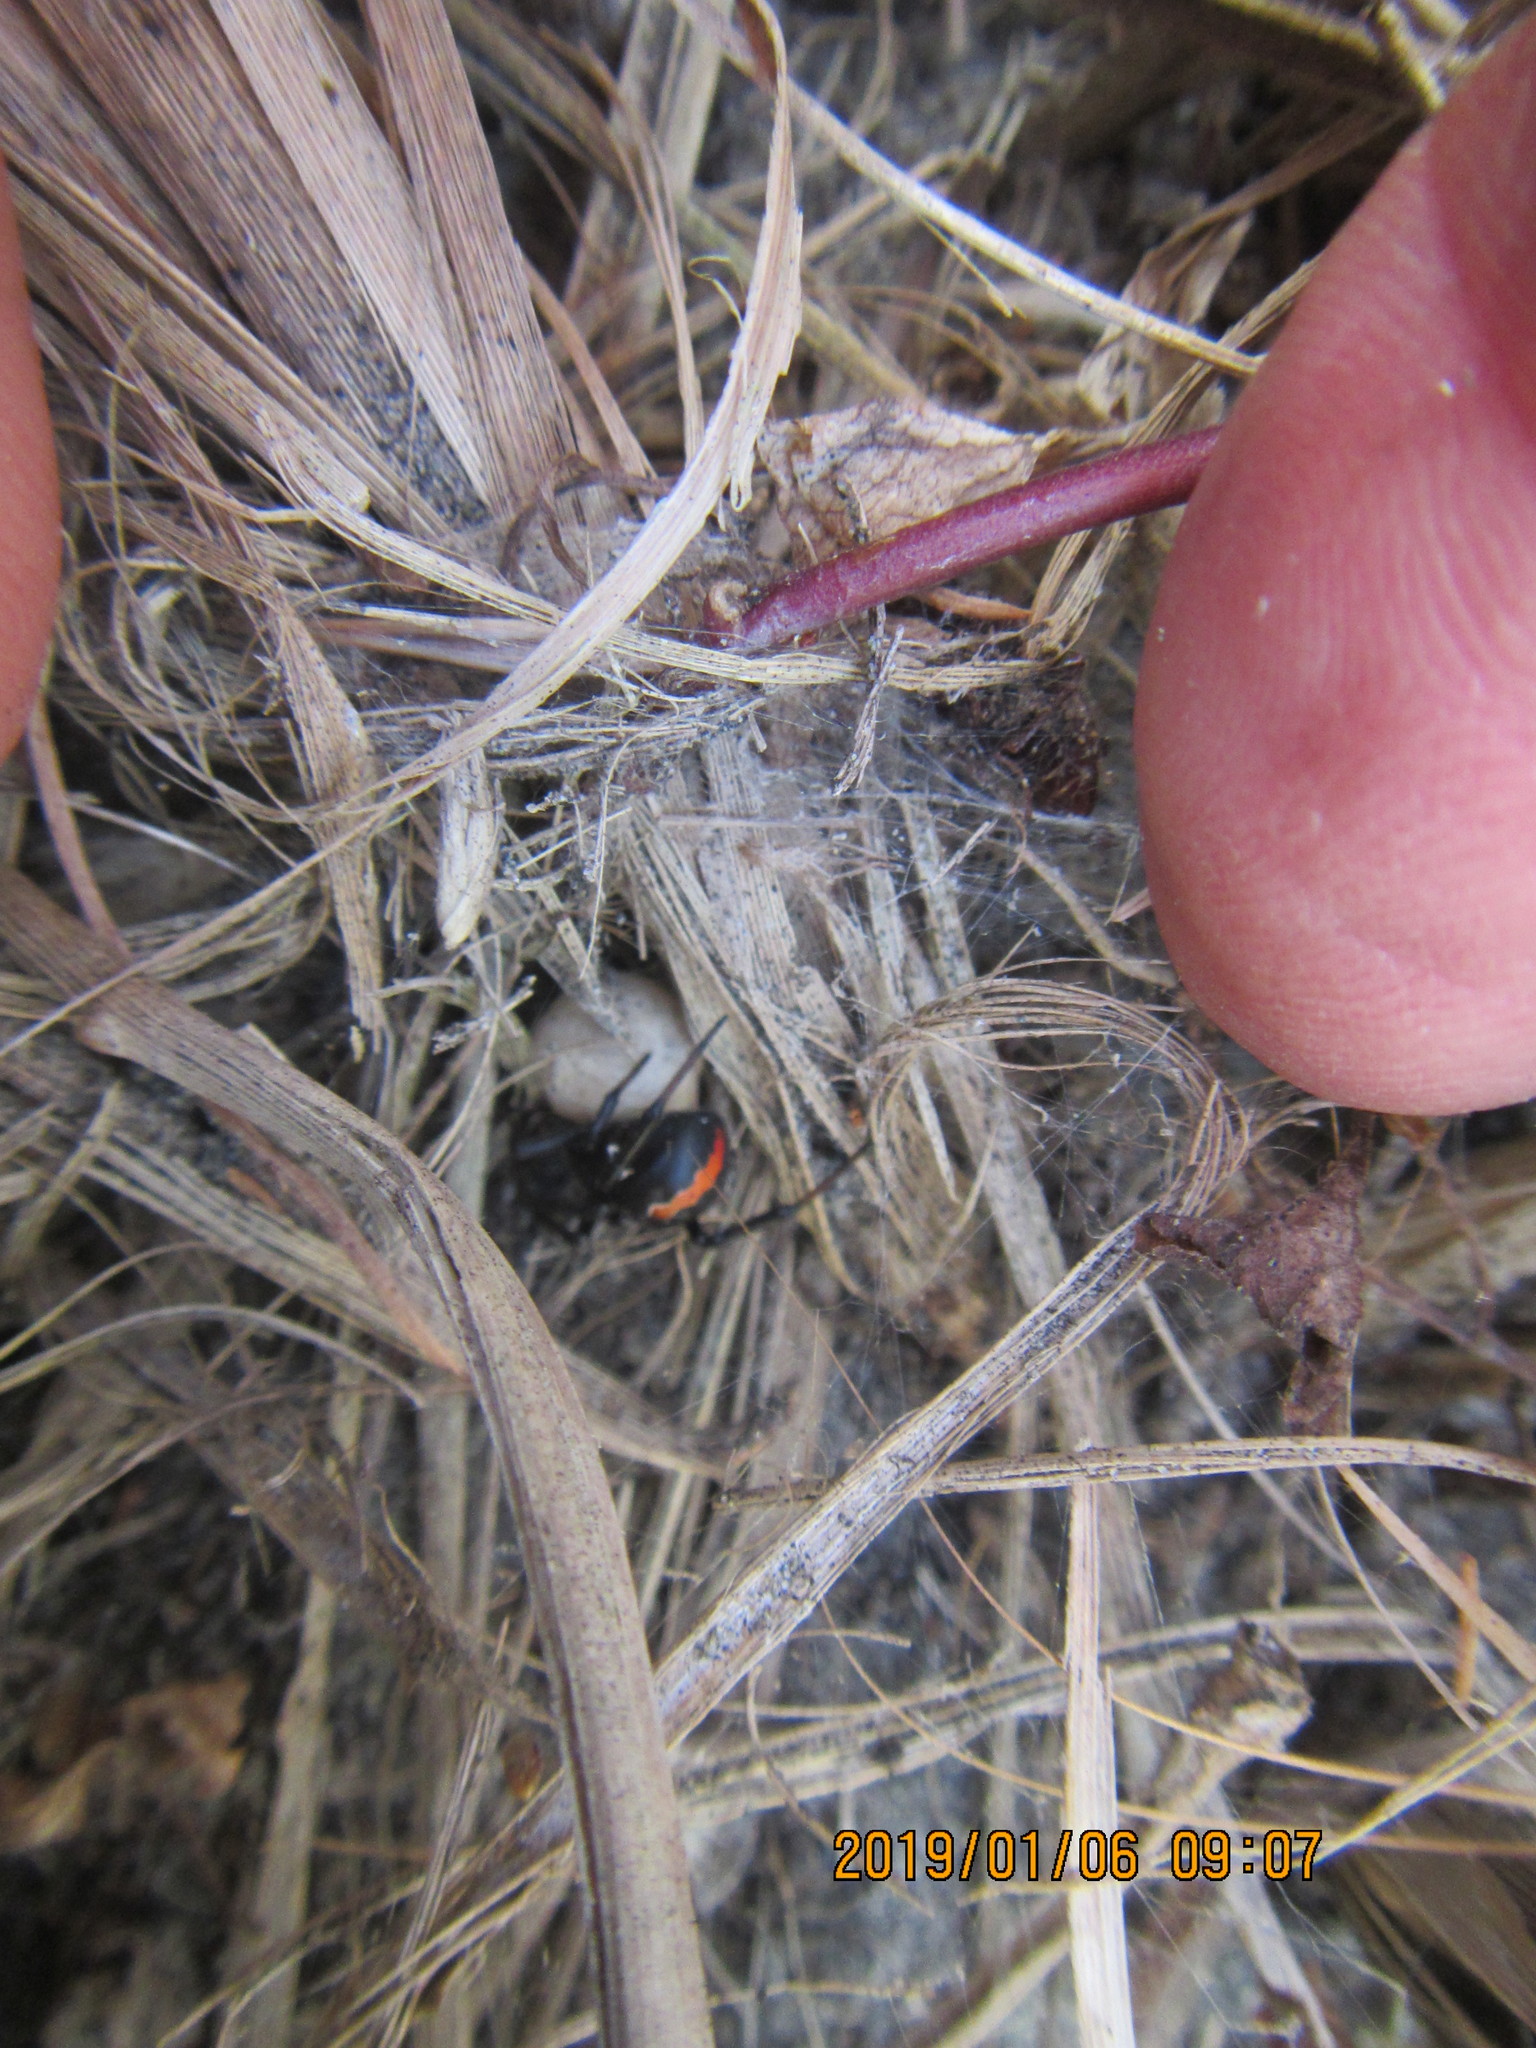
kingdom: Animalia
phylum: Arthropoda
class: Arachnida
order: Araneae
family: Theridiidae
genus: Latrodectus
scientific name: Latrodectus katipo
